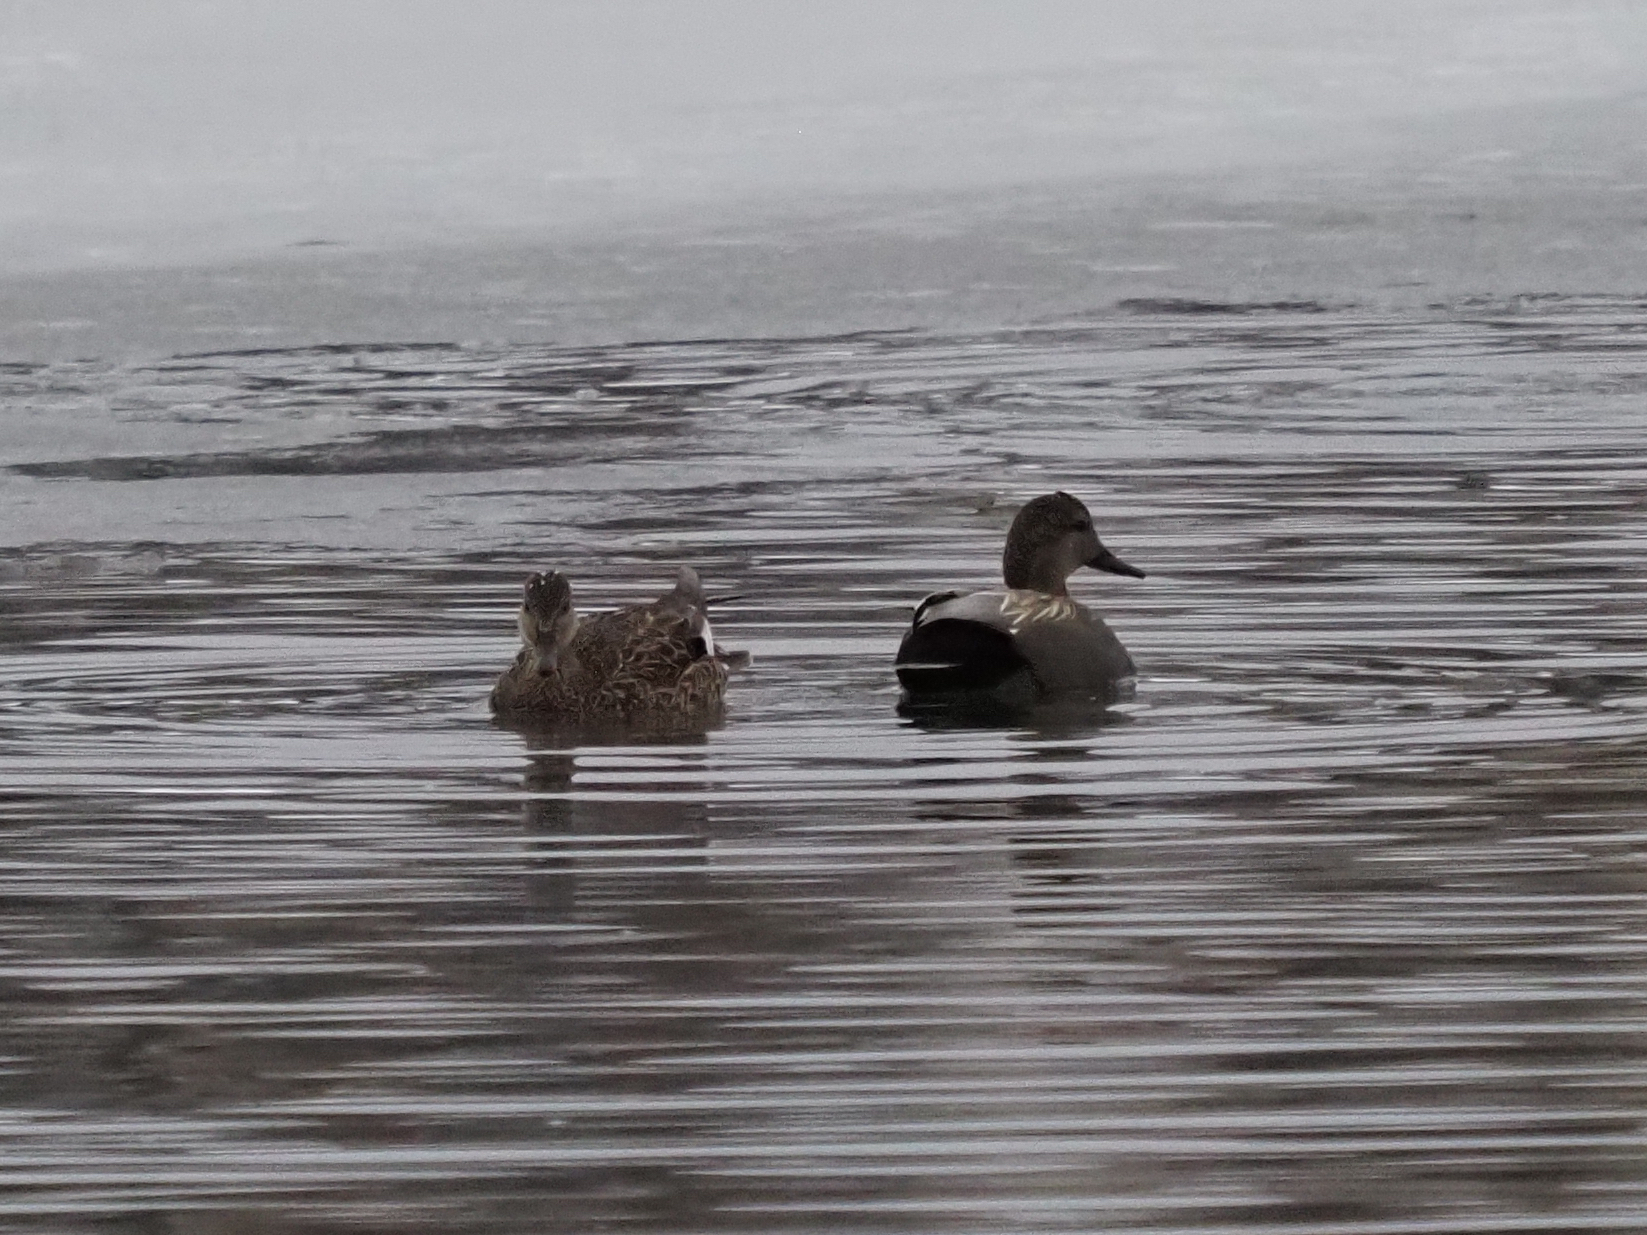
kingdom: Animalia
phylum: Chordata
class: Aves
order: Anseriformes
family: Anatidae
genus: Mareca
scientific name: Mareca strepera
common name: Gadwall
